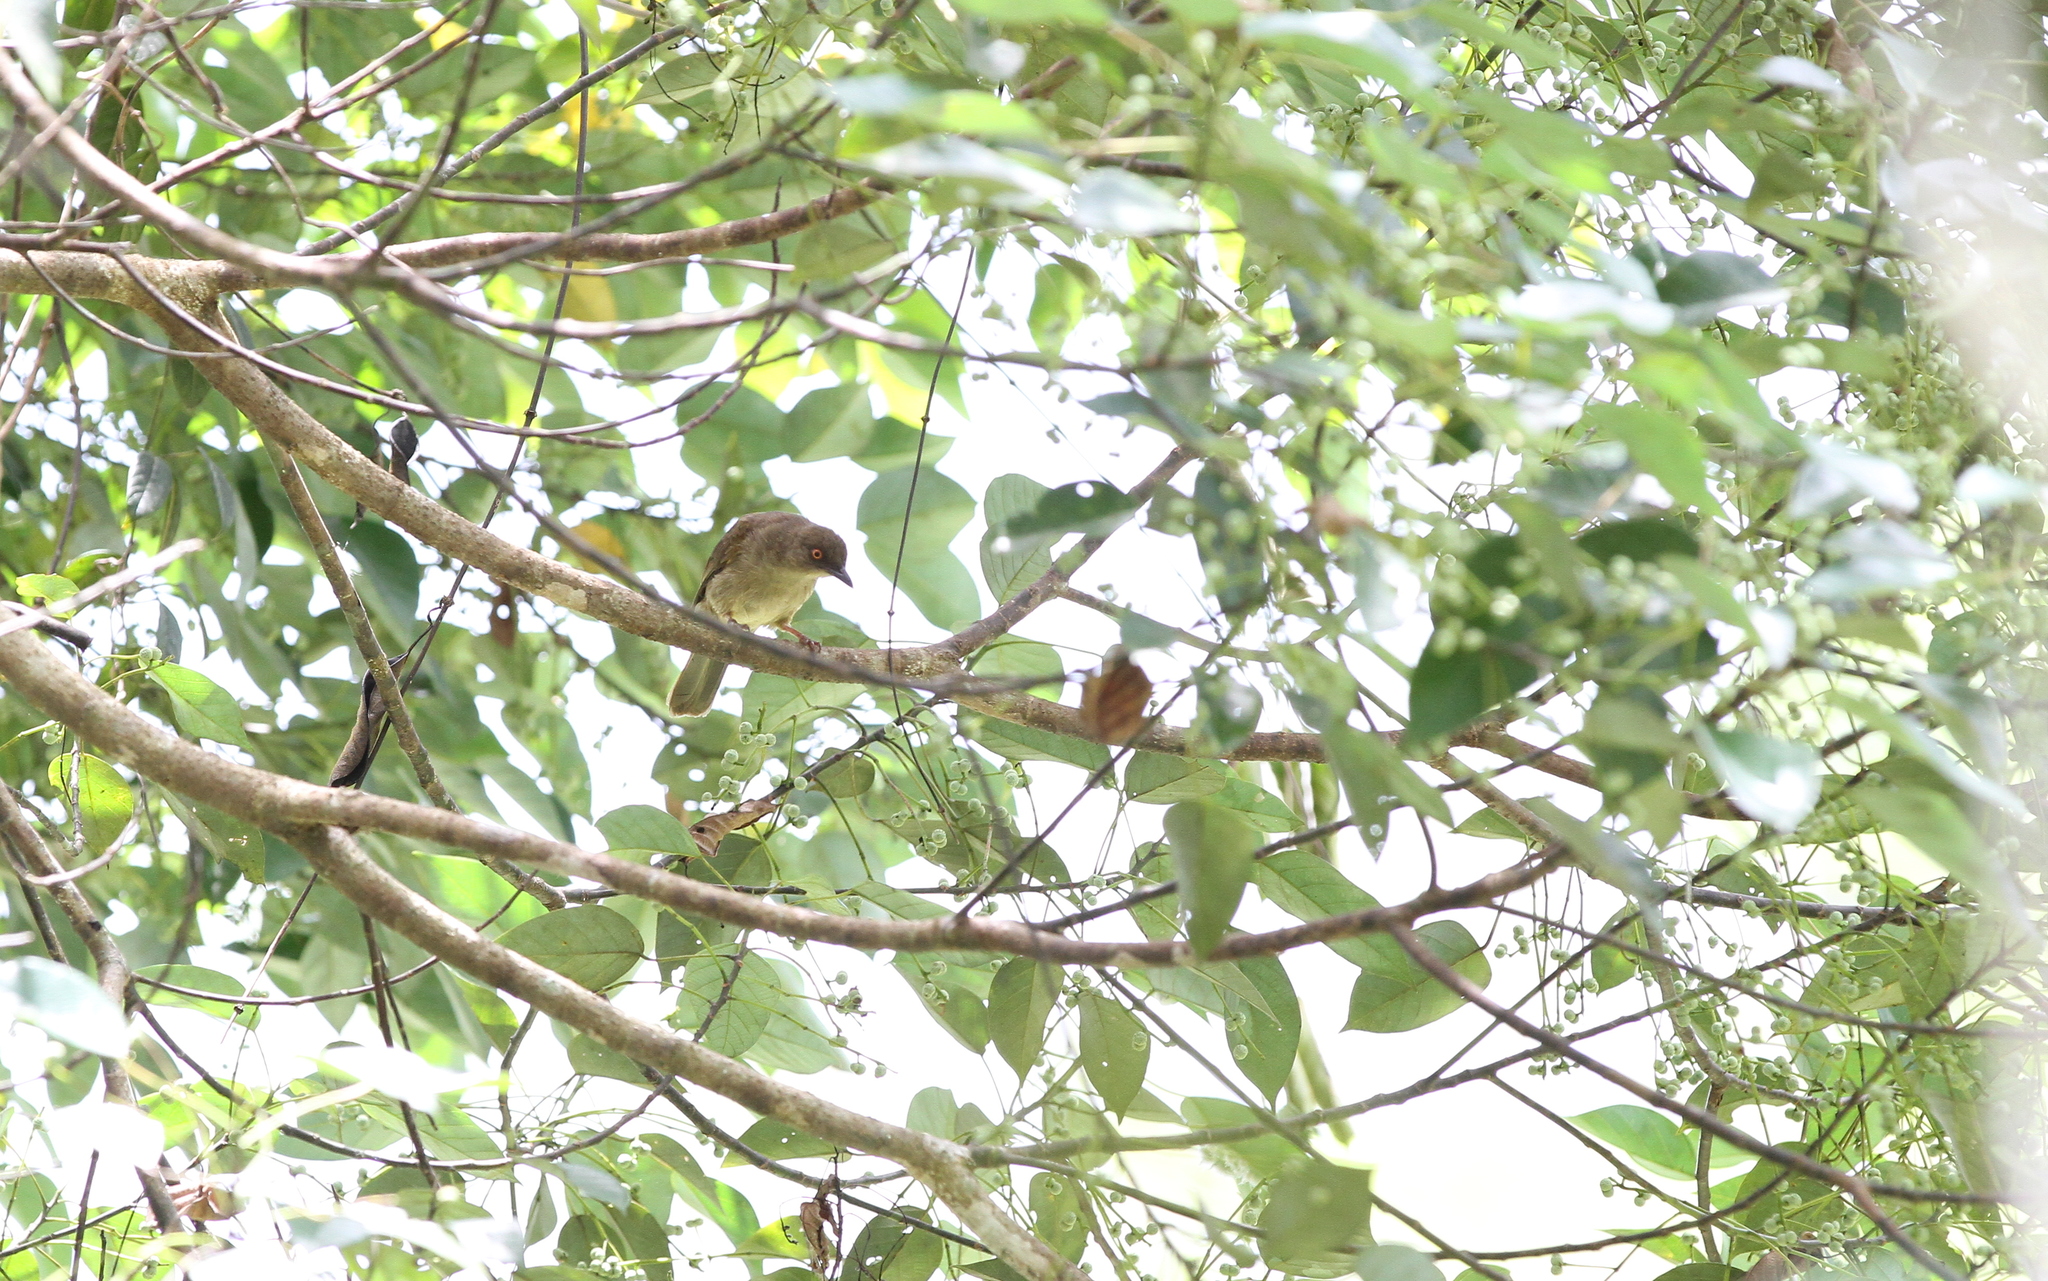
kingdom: Animalia
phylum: Chordata
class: Aves
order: Passeriformes
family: Pycnonotidae
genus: Pycnonotus
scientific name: Pycnonotus brunneus
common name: Asian red-eyed bulbul
